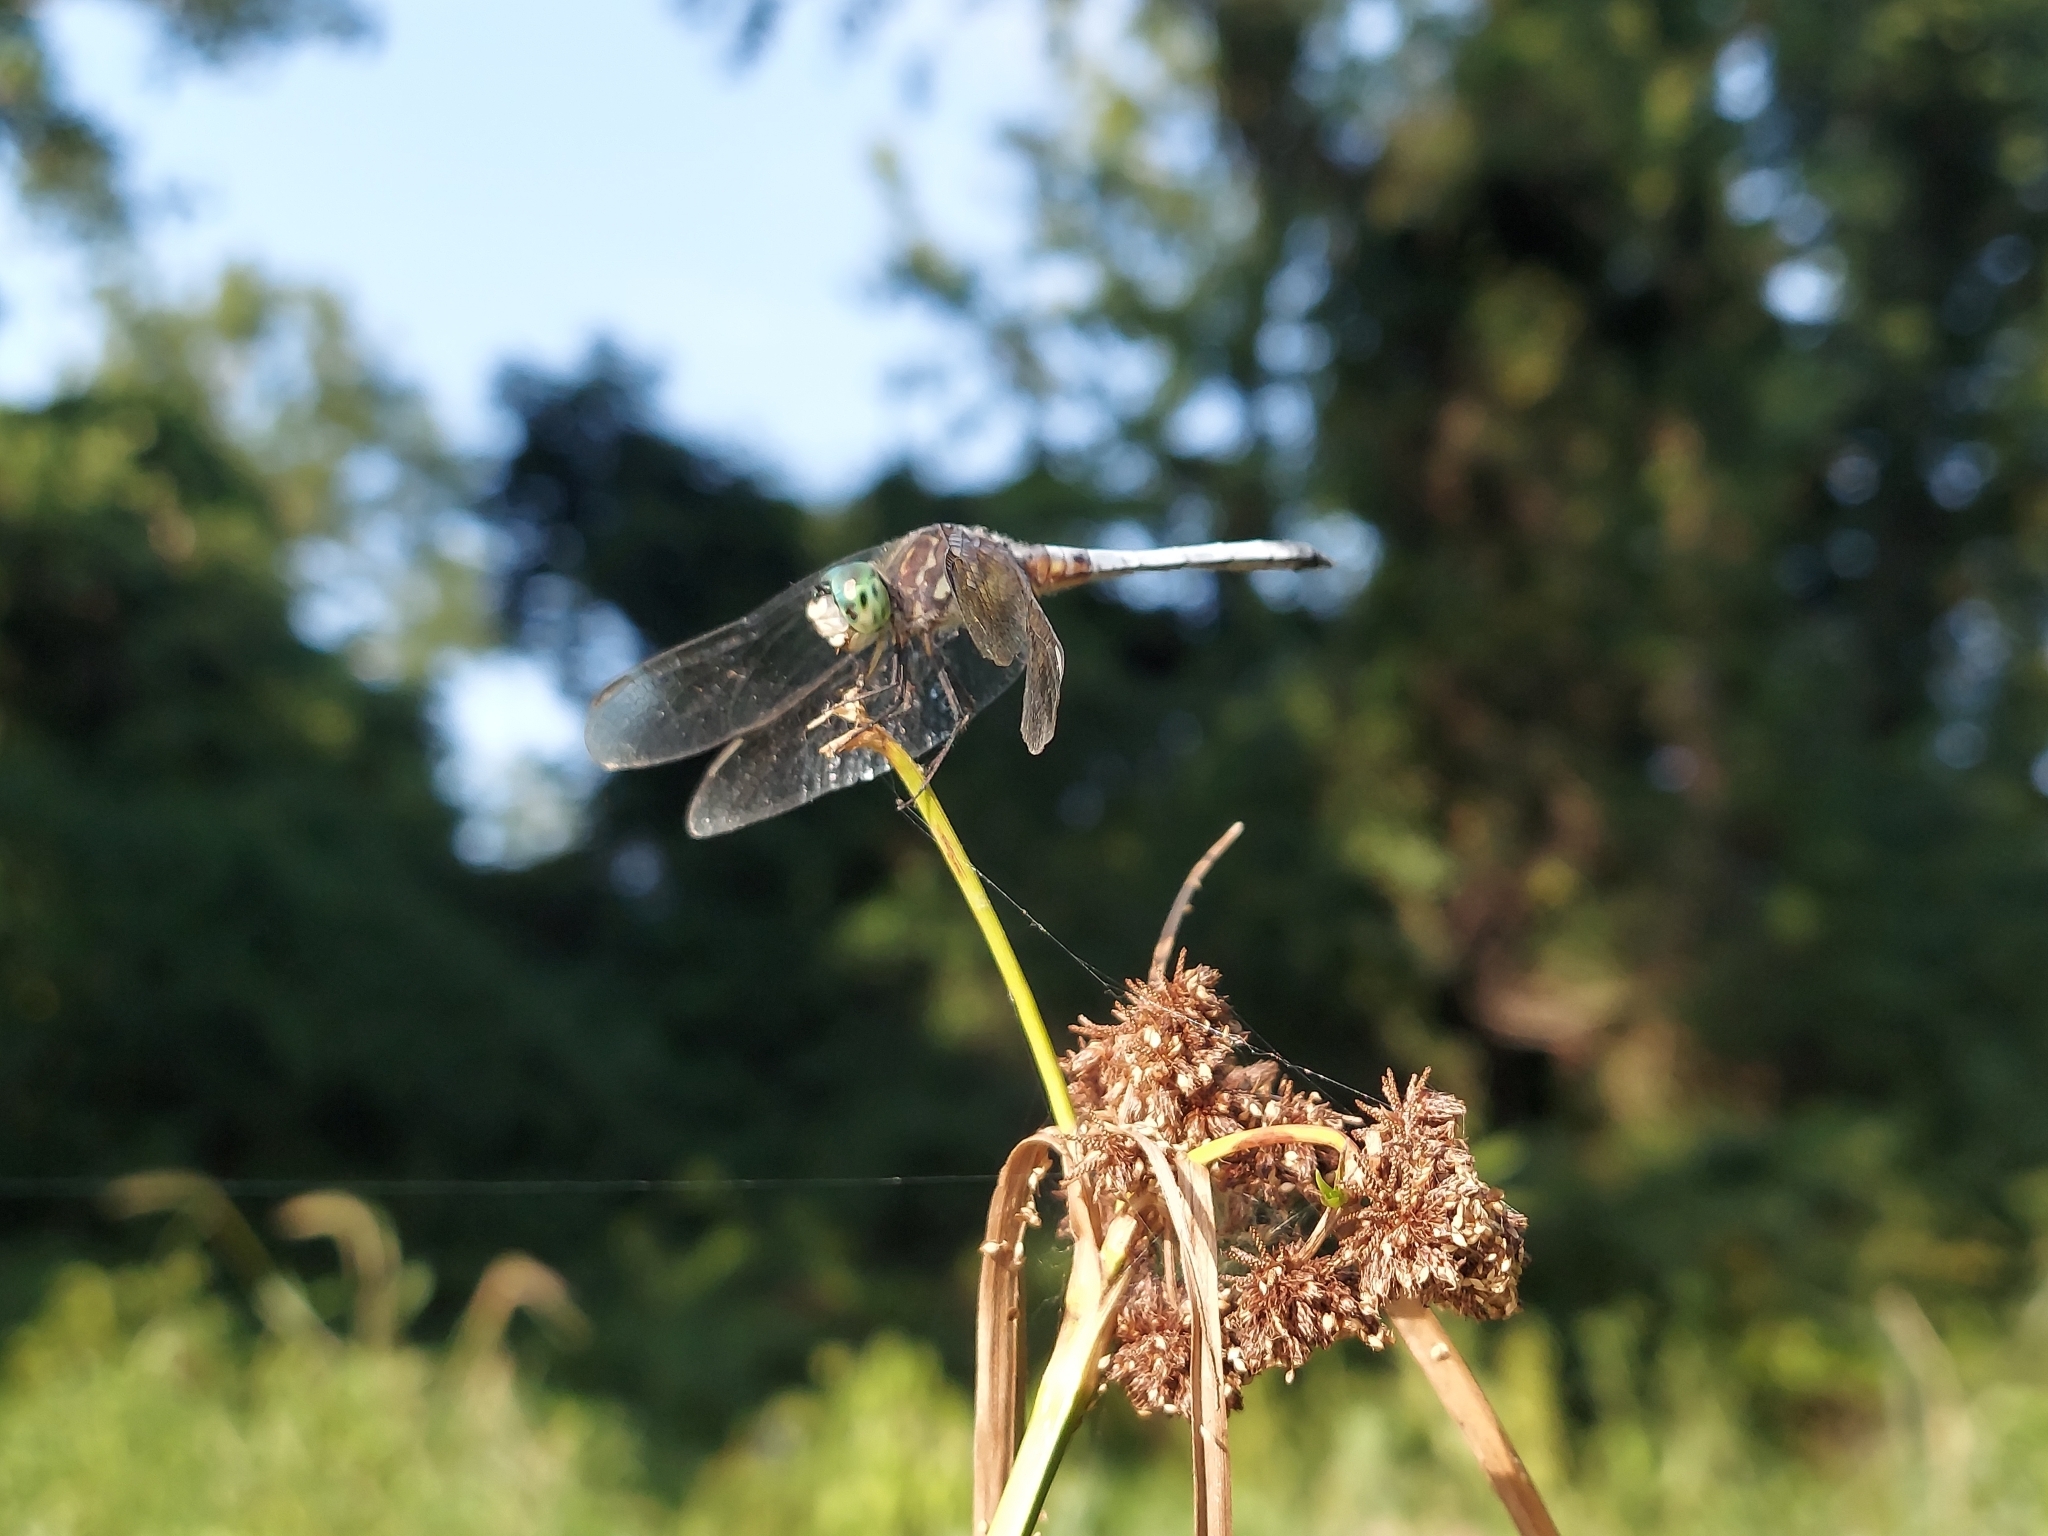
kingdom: Animalia
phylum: Arthropoda
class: Insecta
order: Odonata
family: Libellulidae
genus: Pachydiplax
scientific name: Pachydiplax longipennis
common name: Blue dasher
